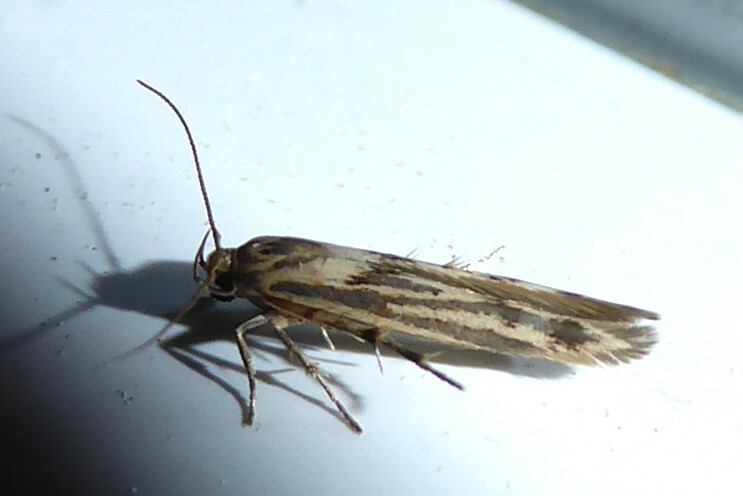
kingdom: Animalia
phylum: Arthropoda
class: Insecta
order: Lepidoptera
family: Stathmopodidae
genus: Stathmopoda
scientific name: Stathmopoda plumbiflua
